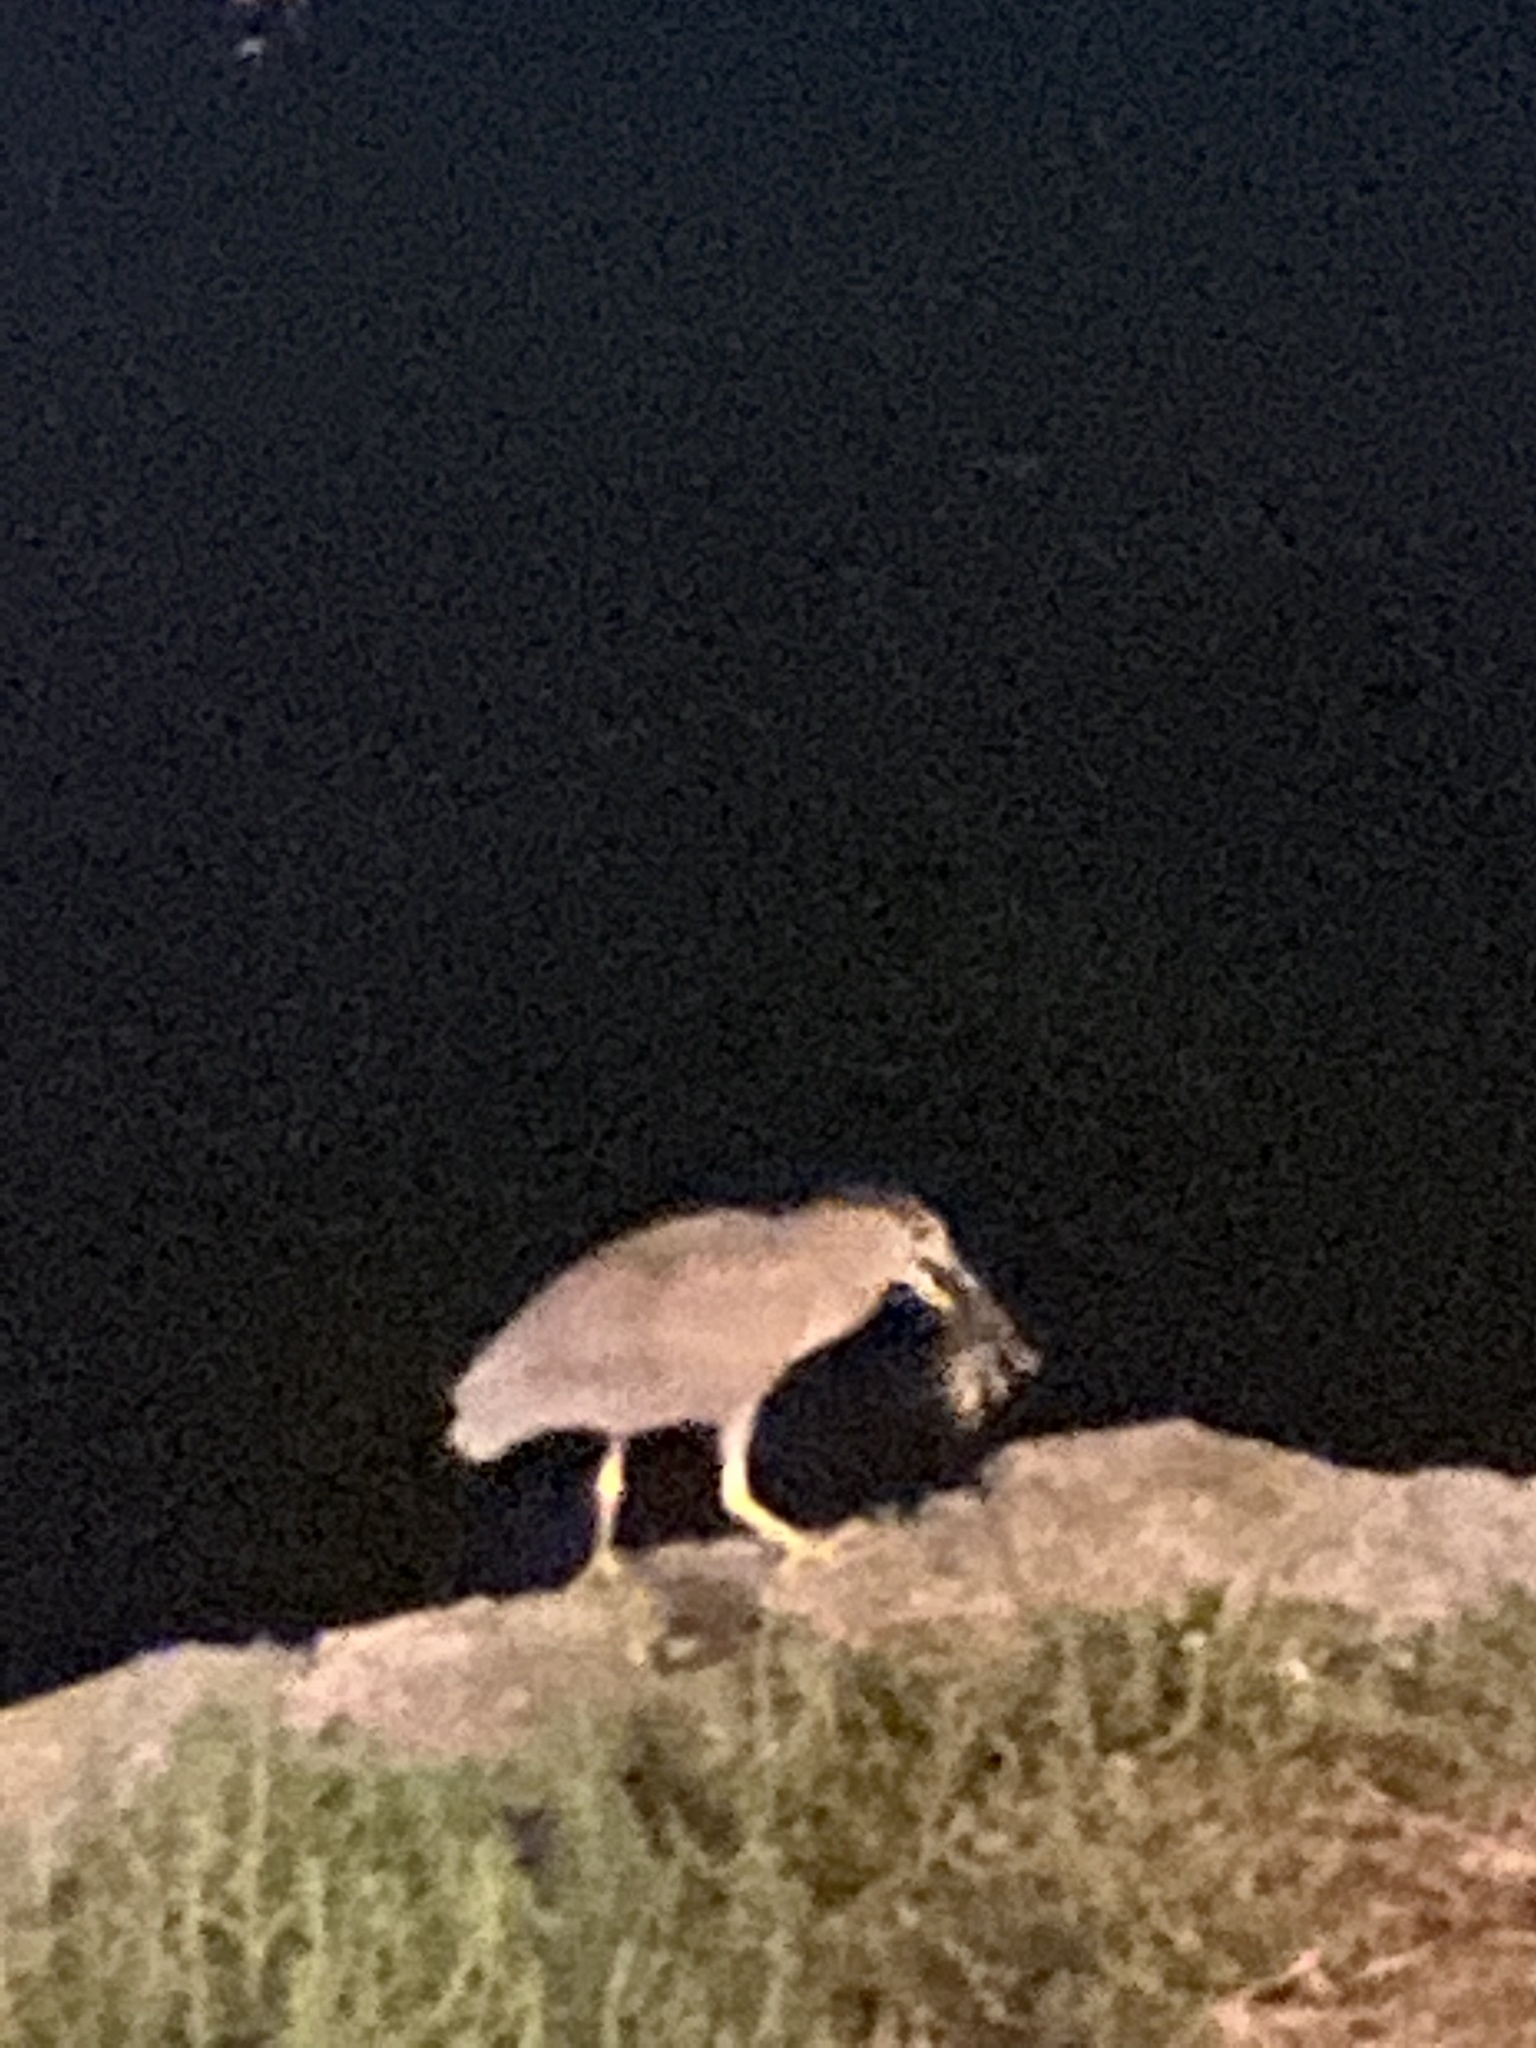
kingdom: Animalia
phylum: Chordata
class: Aves
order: Pelecaniformes
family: Ardeidae
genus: Nycticorax
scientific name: Nycticorax nycticorax
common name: Black-crowned night heron
